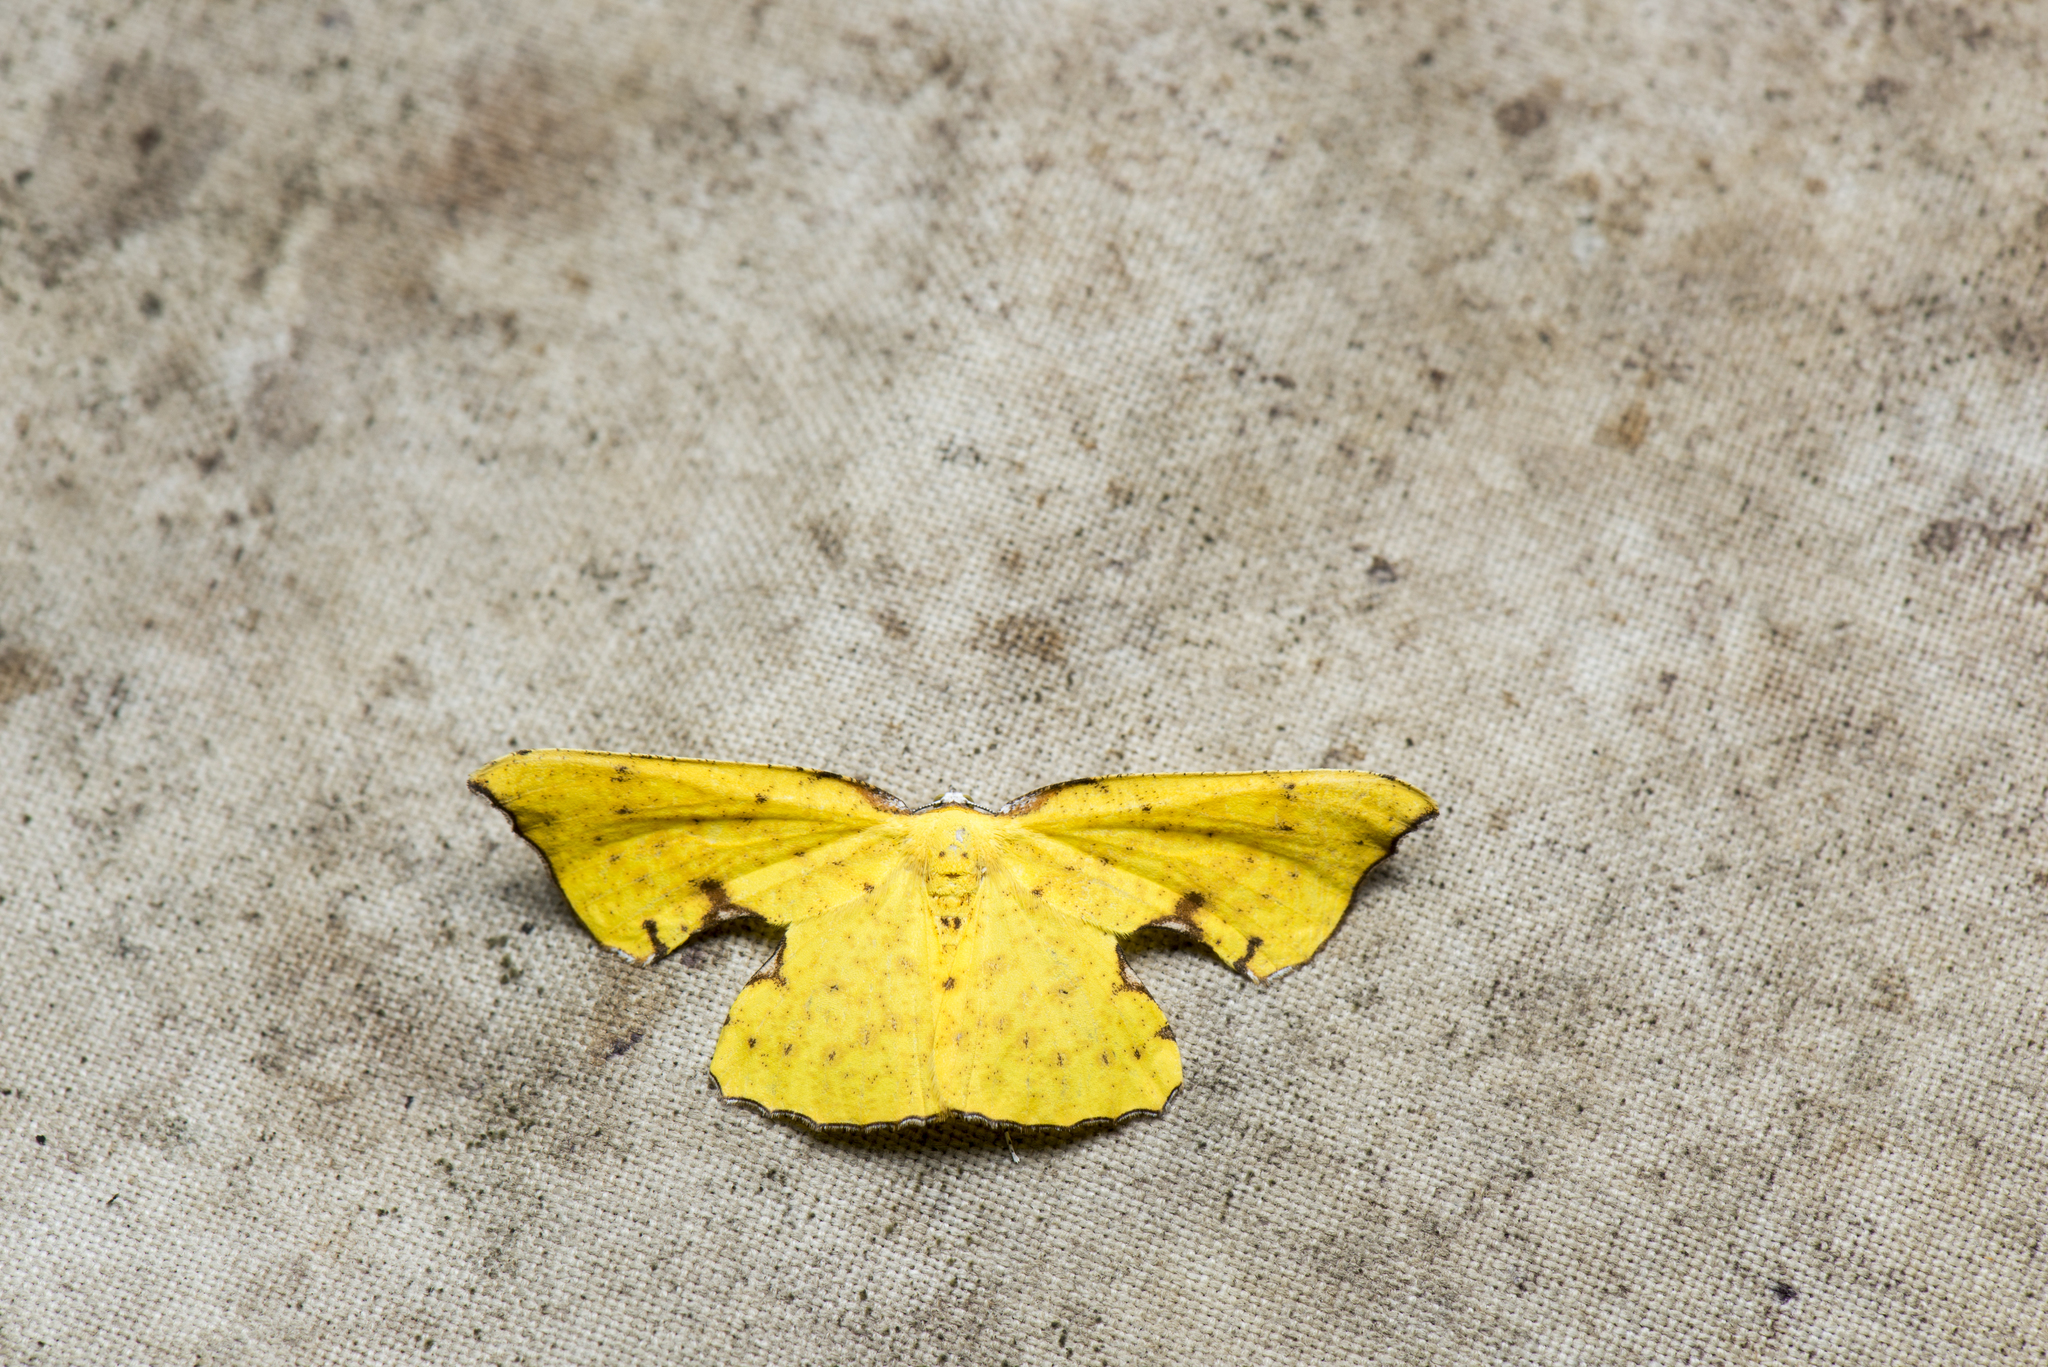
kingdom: Animalia
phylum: Arthropoda
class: Insecta
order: Lepidoptera
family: Geometridae
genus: Corymica
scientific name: Corymica spatiosa
